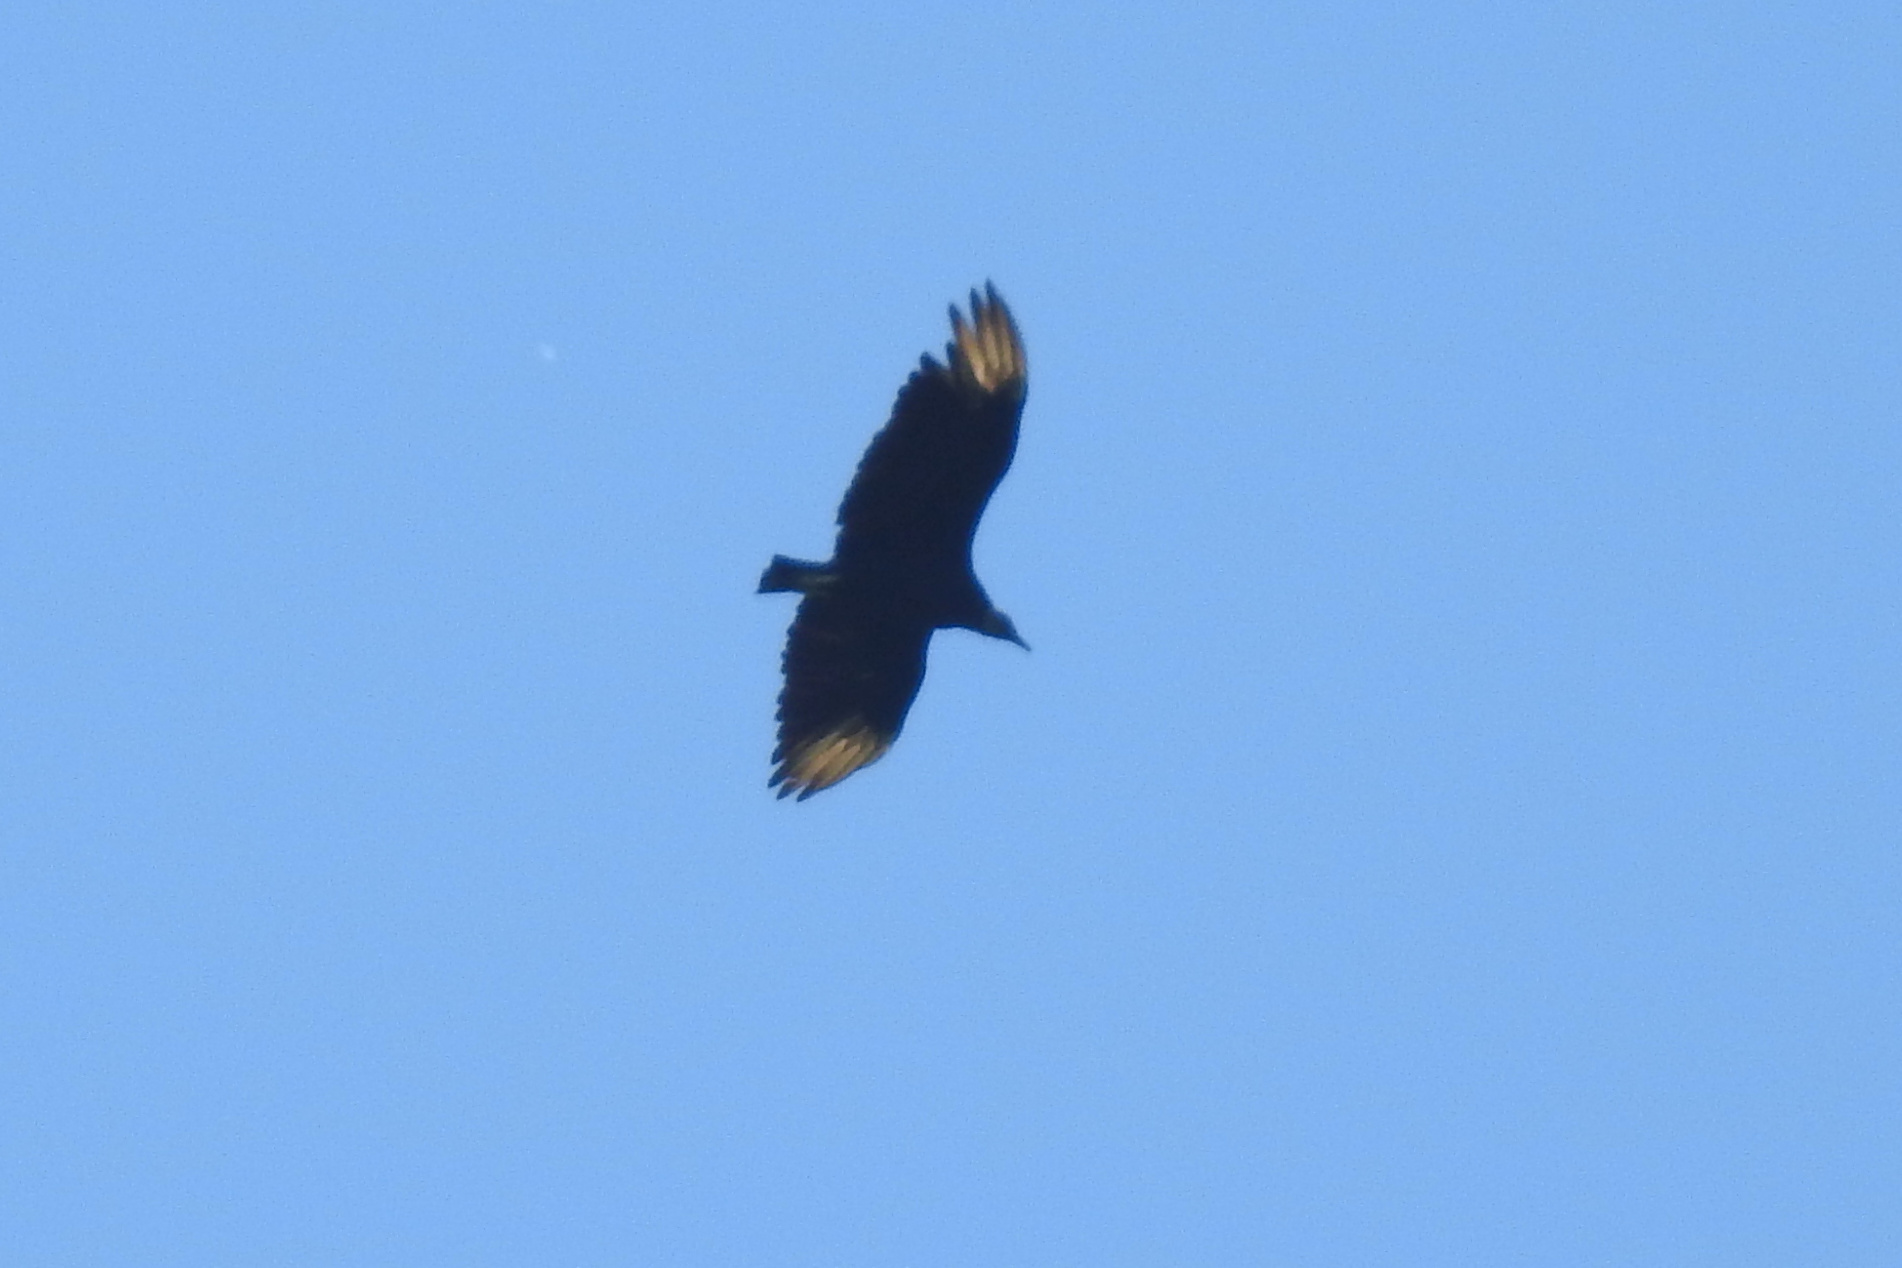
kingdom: Animalia
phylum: Chordata
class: Aves
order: Accipitriformes
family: Cathartidae
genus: Coragyps
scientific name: Coragyps atratus
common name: Black vulture
